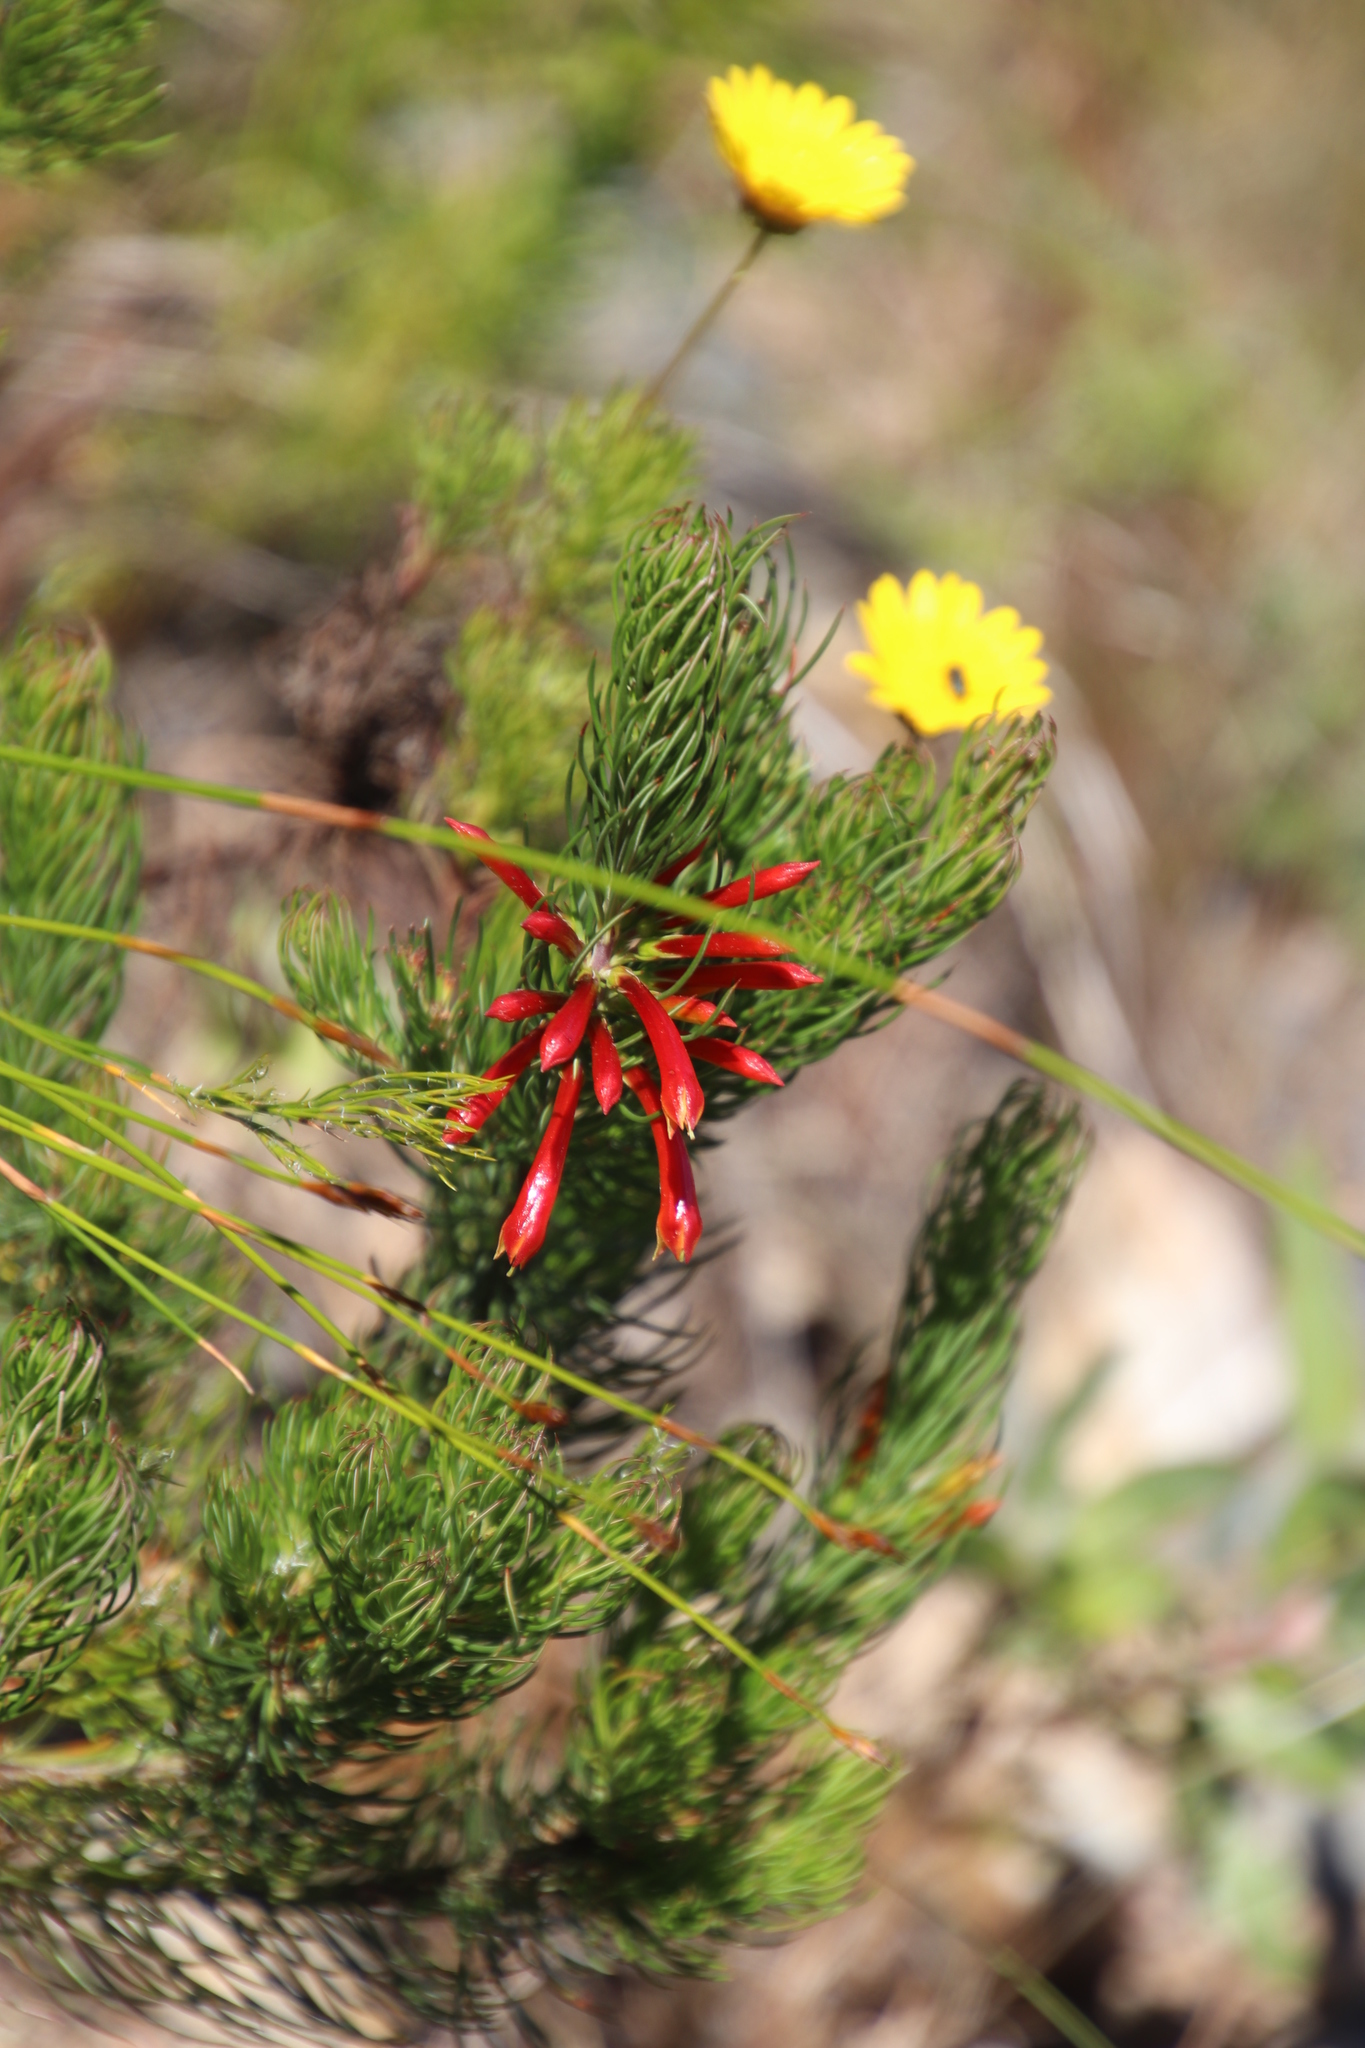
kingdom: Plantae
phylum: Tracheophyta
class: Magnoliopsida
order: Ericales
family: Ericaceae
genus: Erica
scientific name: Erica grandiflora
